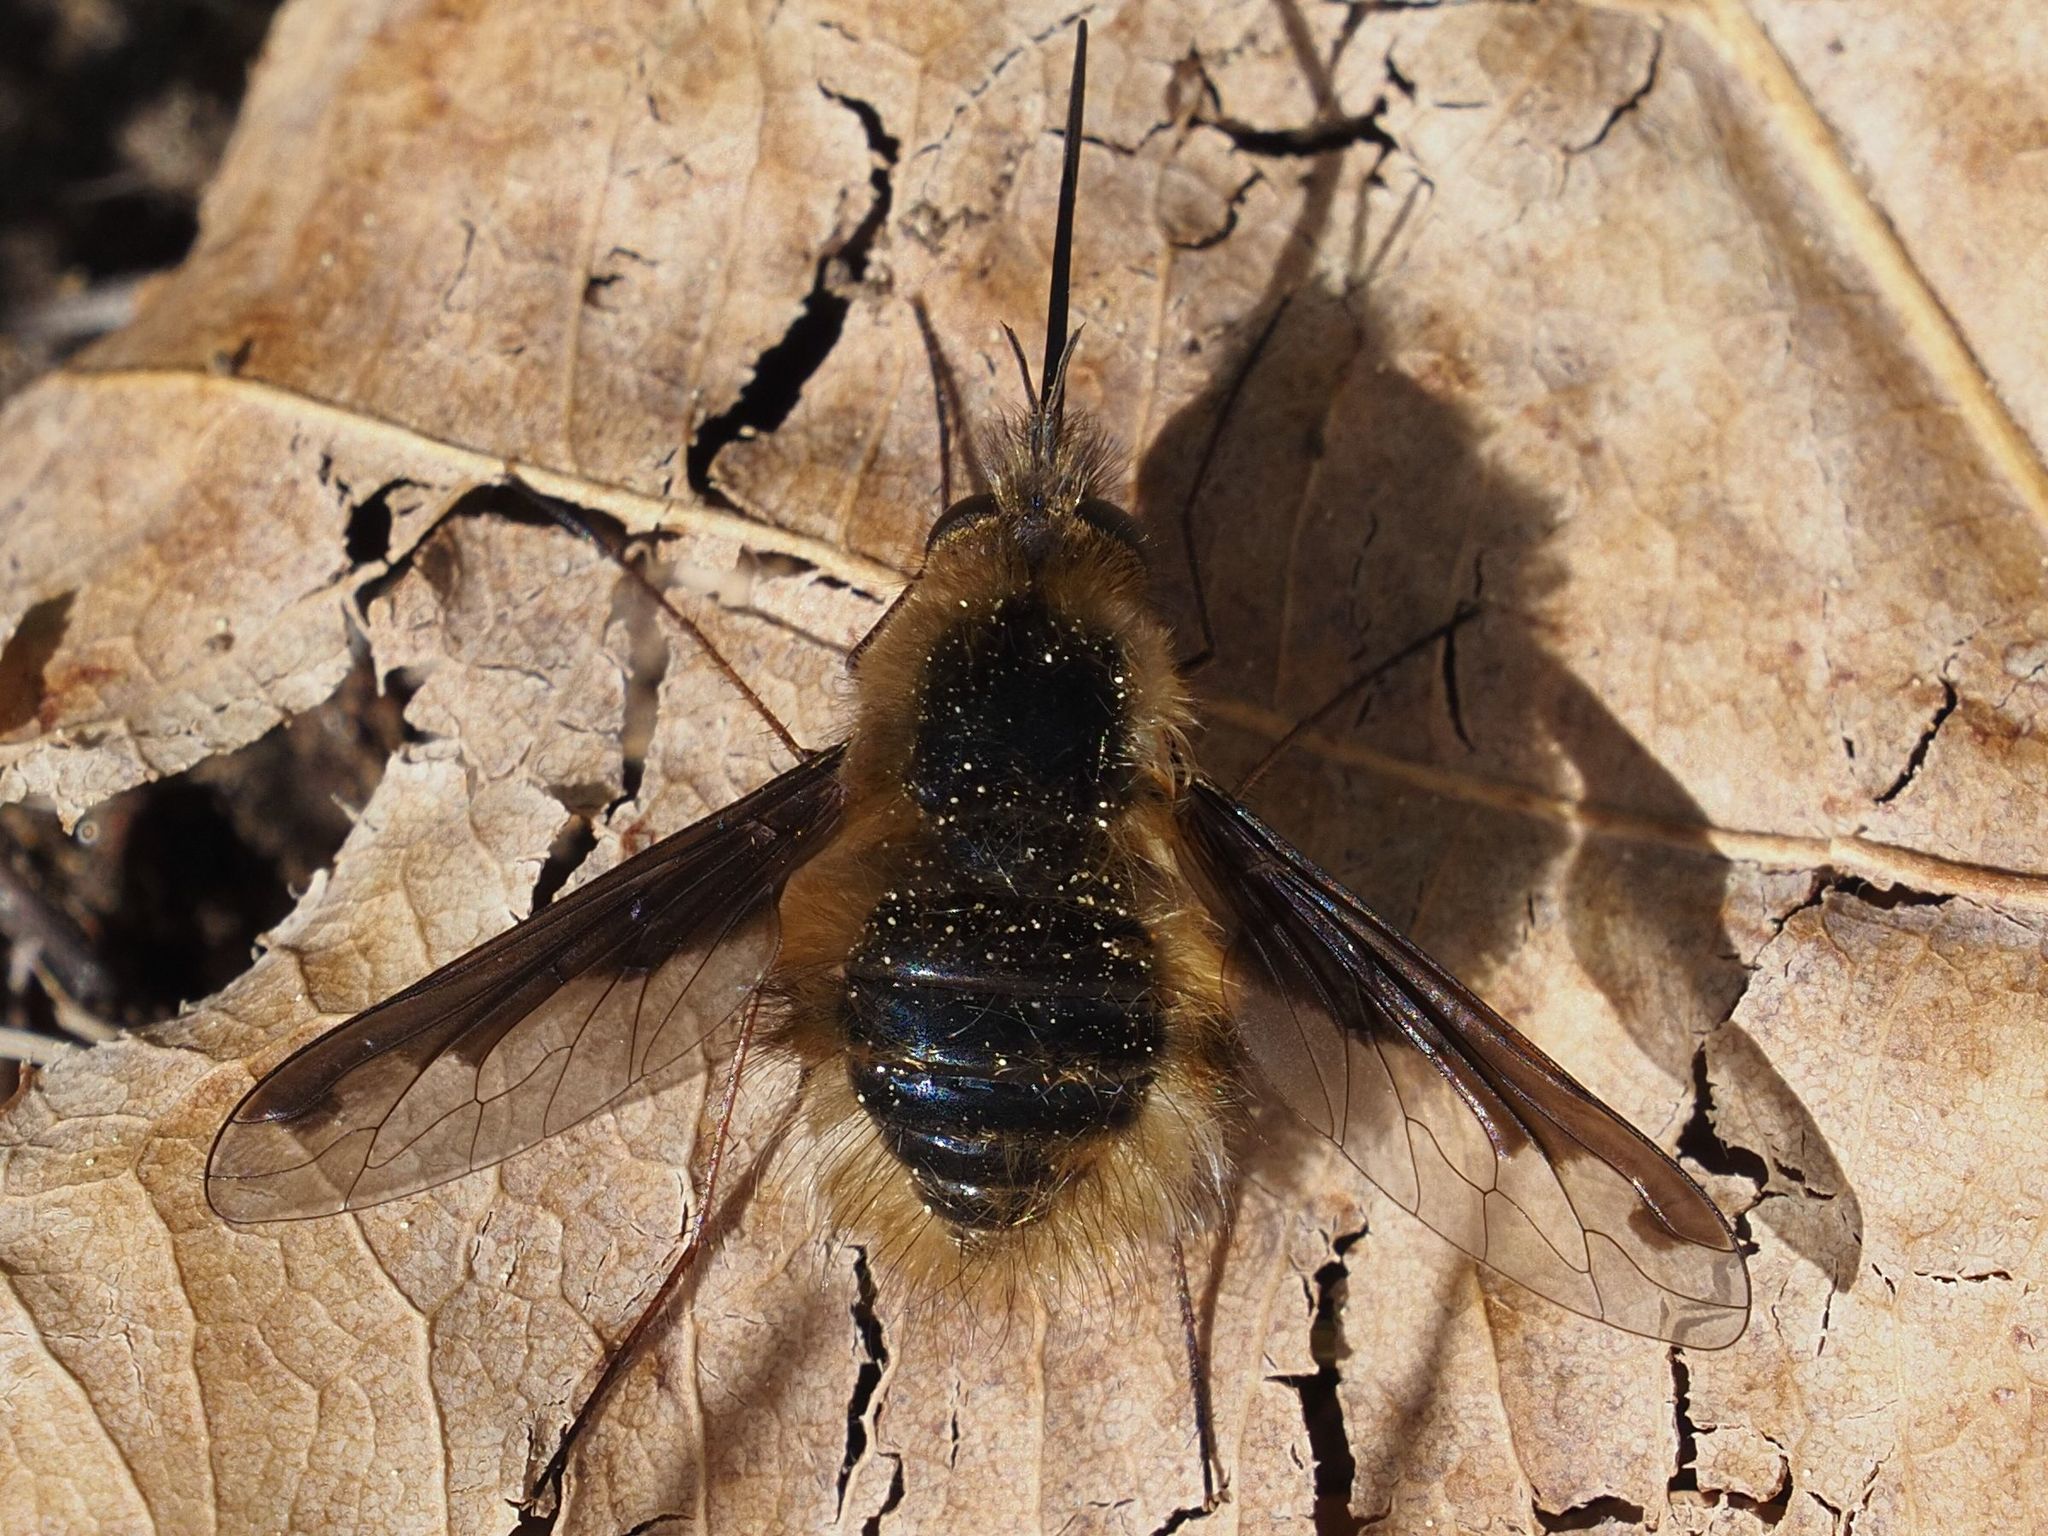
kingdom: Animalia
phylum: Arthropoda
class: Insecta
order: Diptera
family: Bombyliidae
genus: Bombylius
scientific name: Bombylius major
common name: Bee fly
